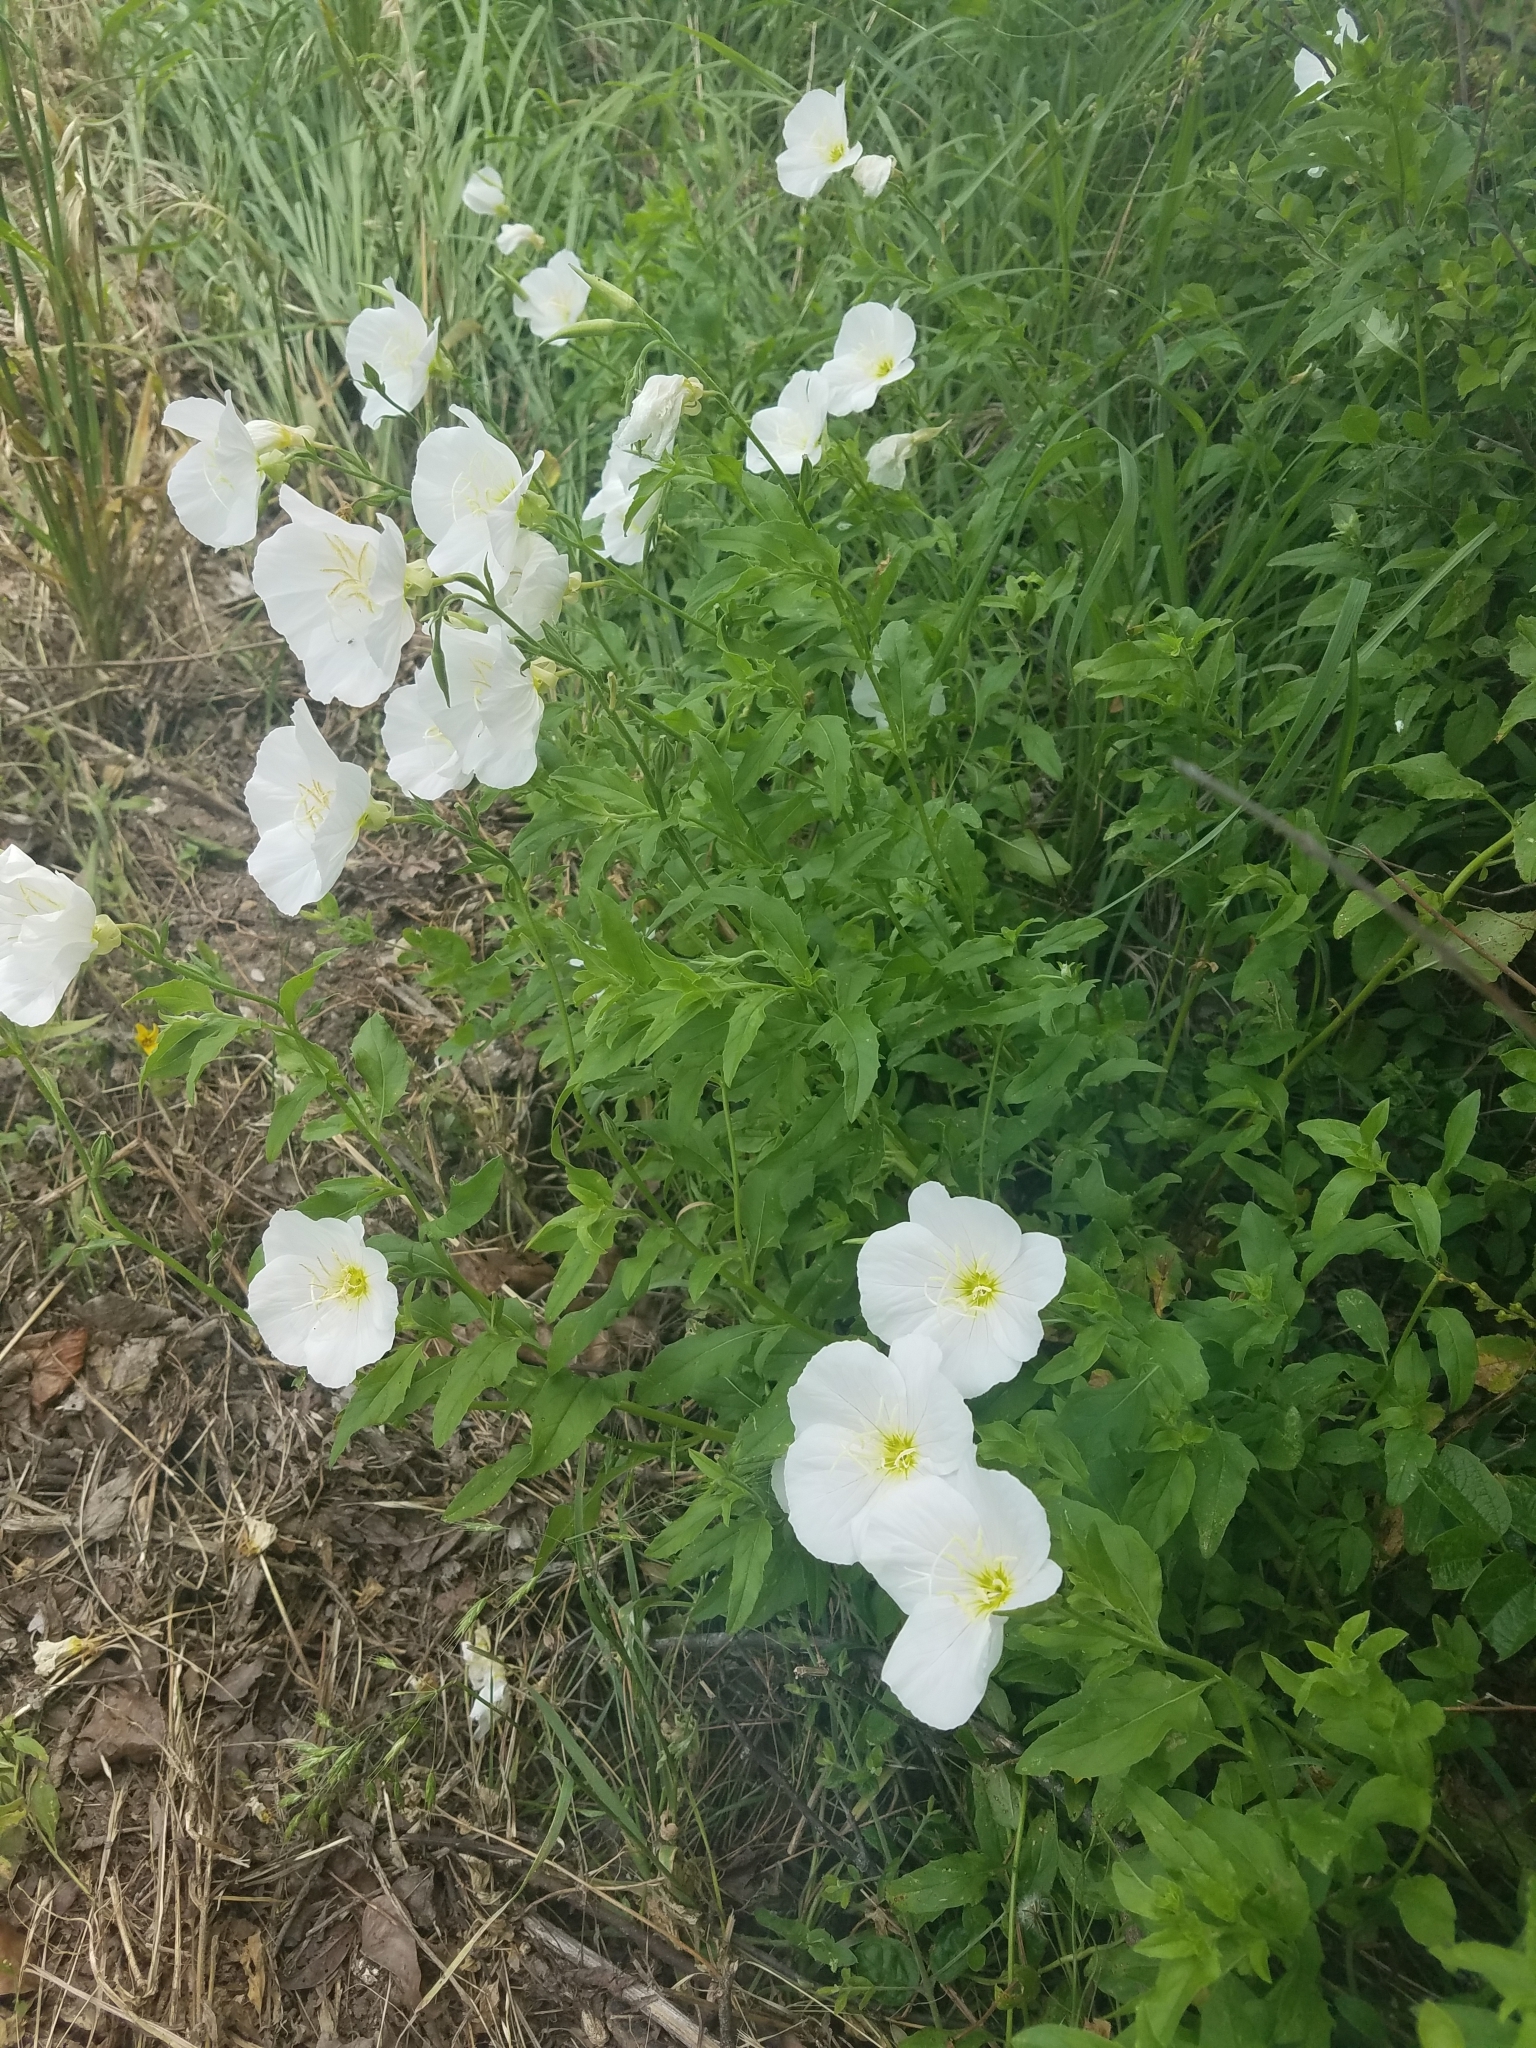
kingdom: Plantae
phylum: Tracheophyta
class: Magnoliopsida
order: Myrtales
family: Onagraceae
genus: Oenothera
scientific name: Oenothera speciosa
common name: White evening-primrose
